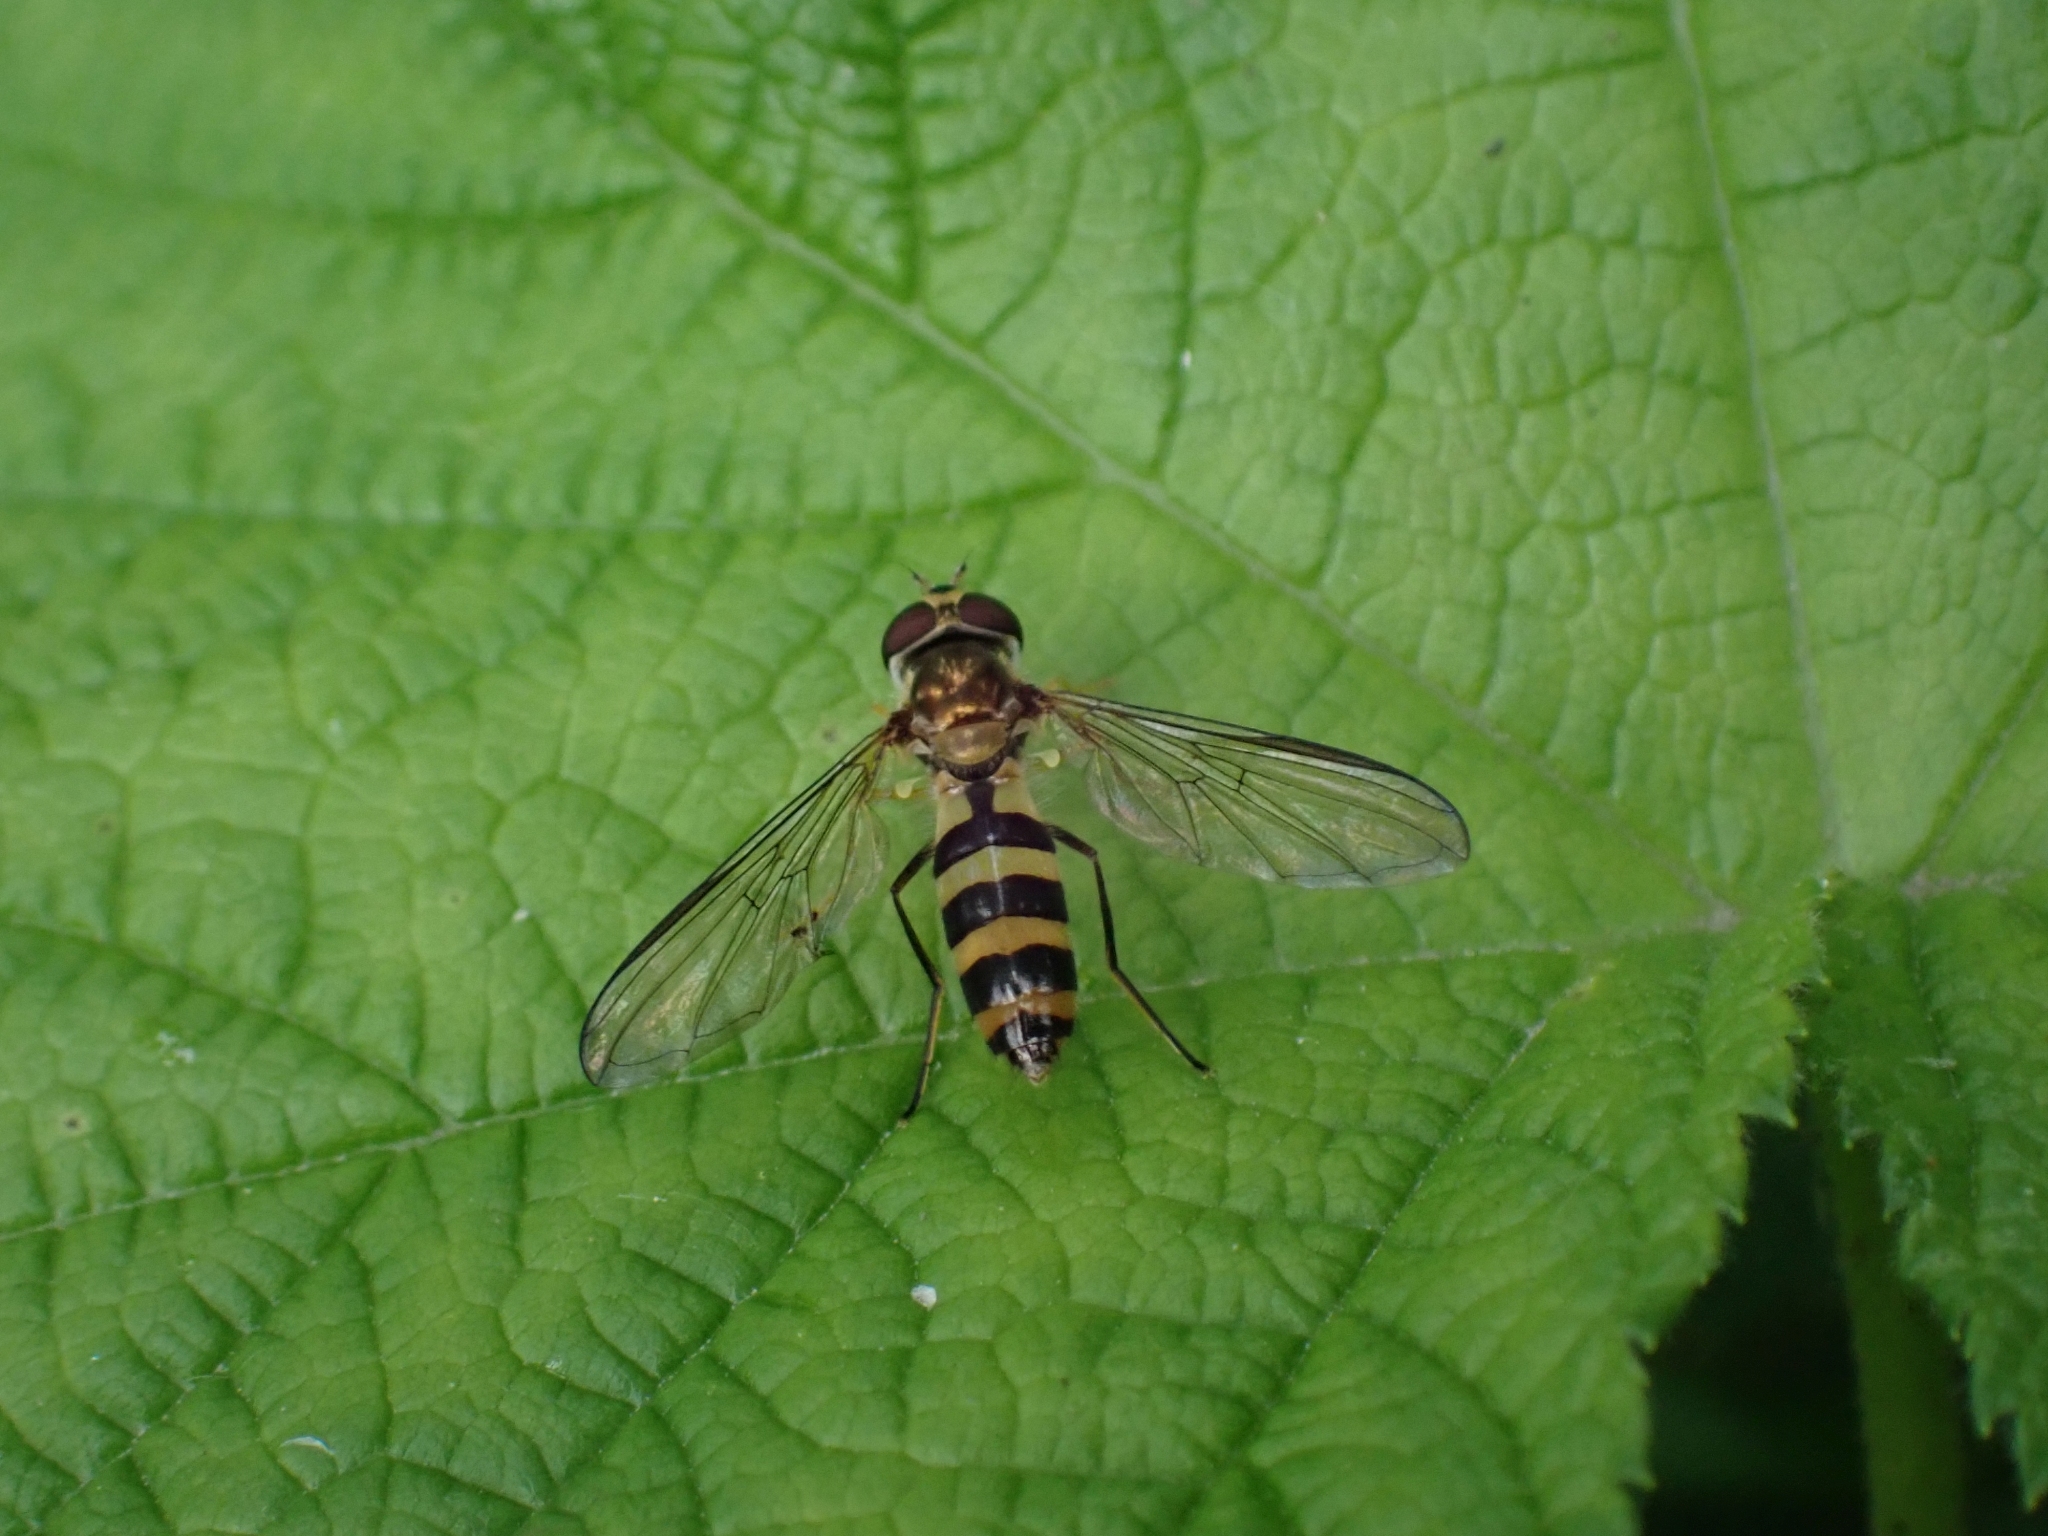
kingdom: Animalia
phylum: Arthropoda
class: Insecta
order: Diptera
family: Syrphidae
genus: Meliscaeva
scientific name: Meliscaeva cinctella
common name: American thintail fly
